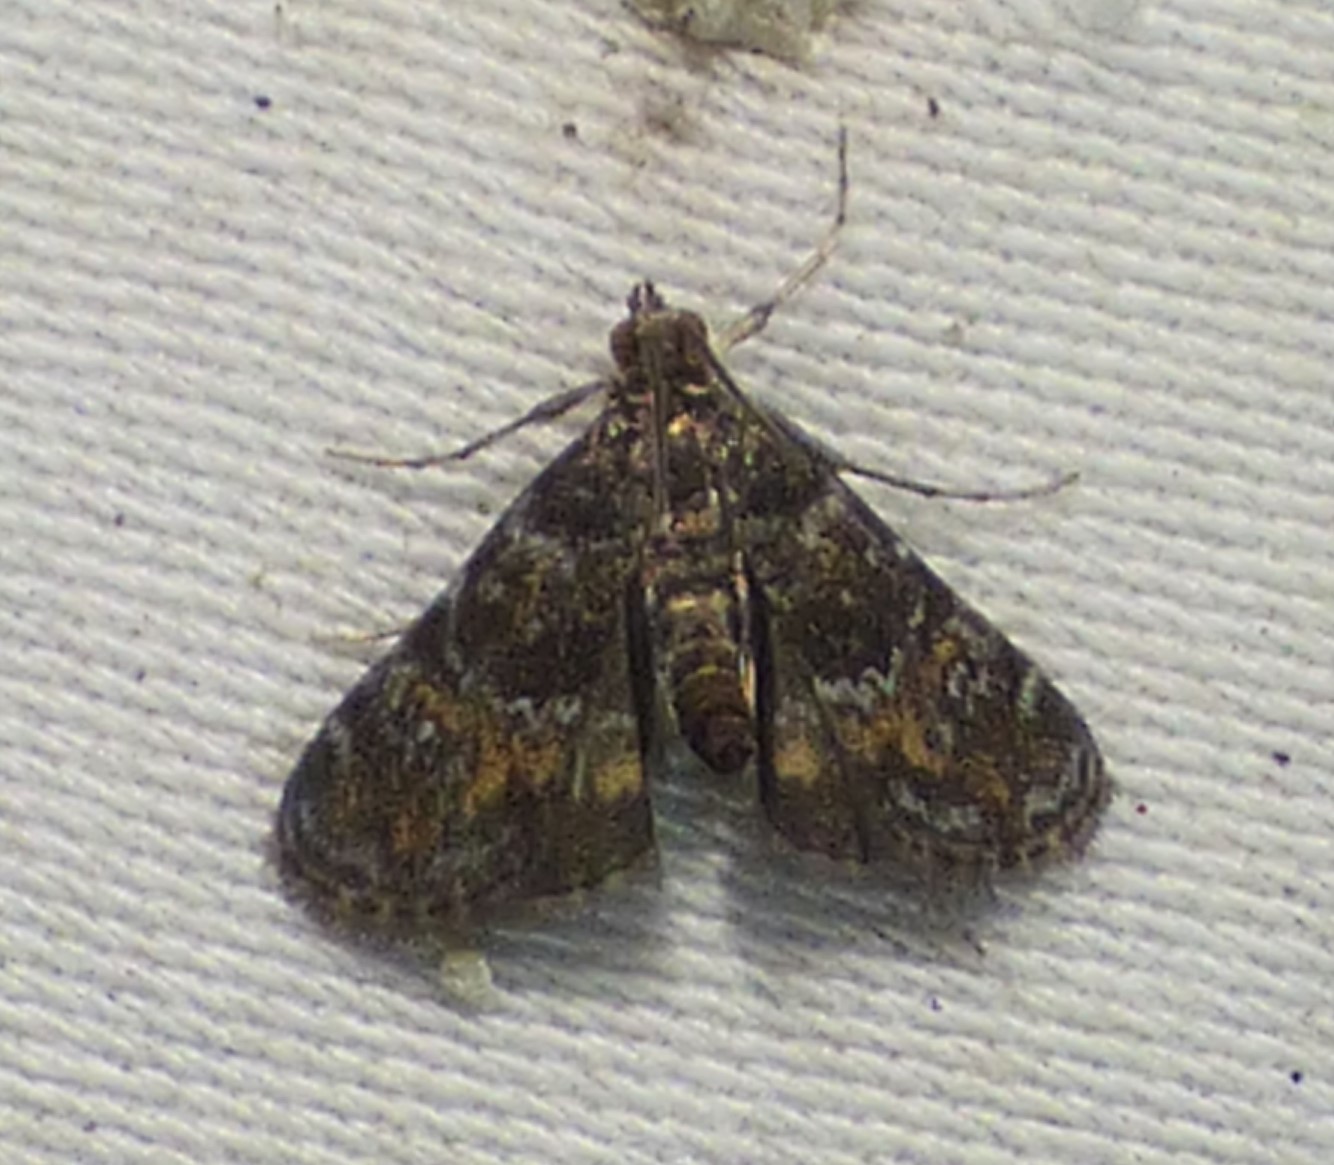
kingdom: Animalia
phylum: Arthropoda
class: Insecta
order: Lepidoptera
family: Crambidae
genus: Elophila
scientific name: Elophila obliteralis
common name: Waterlily leafcutter moth
